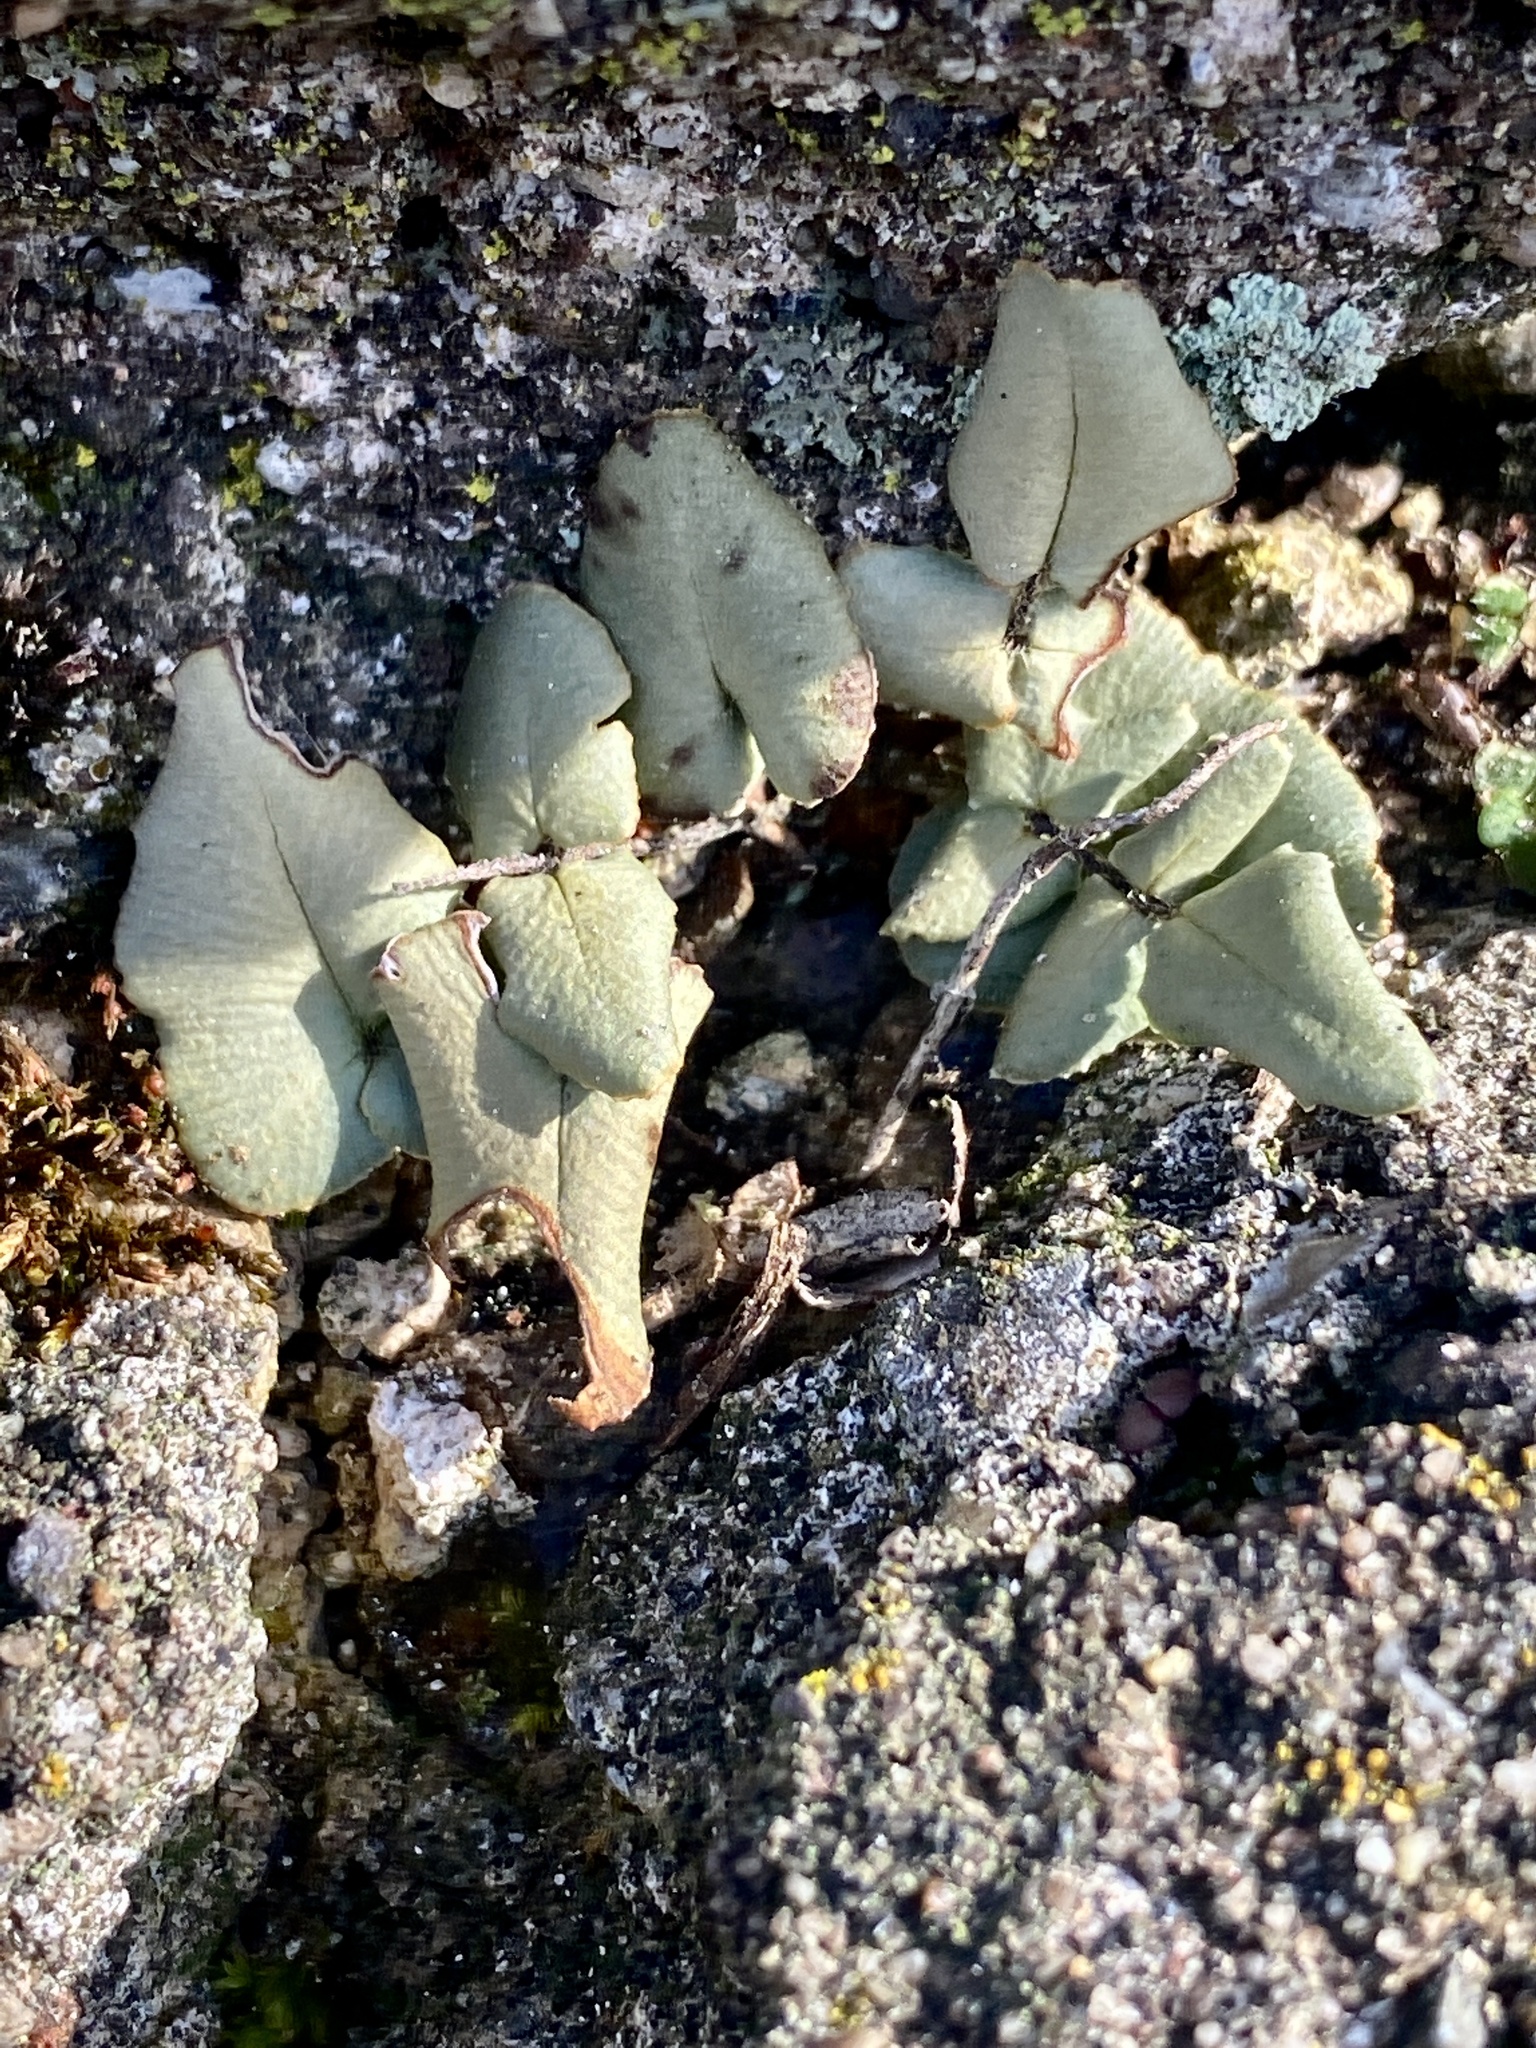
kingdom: Plantae
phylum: Tracheophyta
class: Polypodiopsida
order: Polypodiales
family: Pteridaceae
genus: Pellaea
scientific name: Pellaea atropurpurea
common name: Hairy cliffbrake
